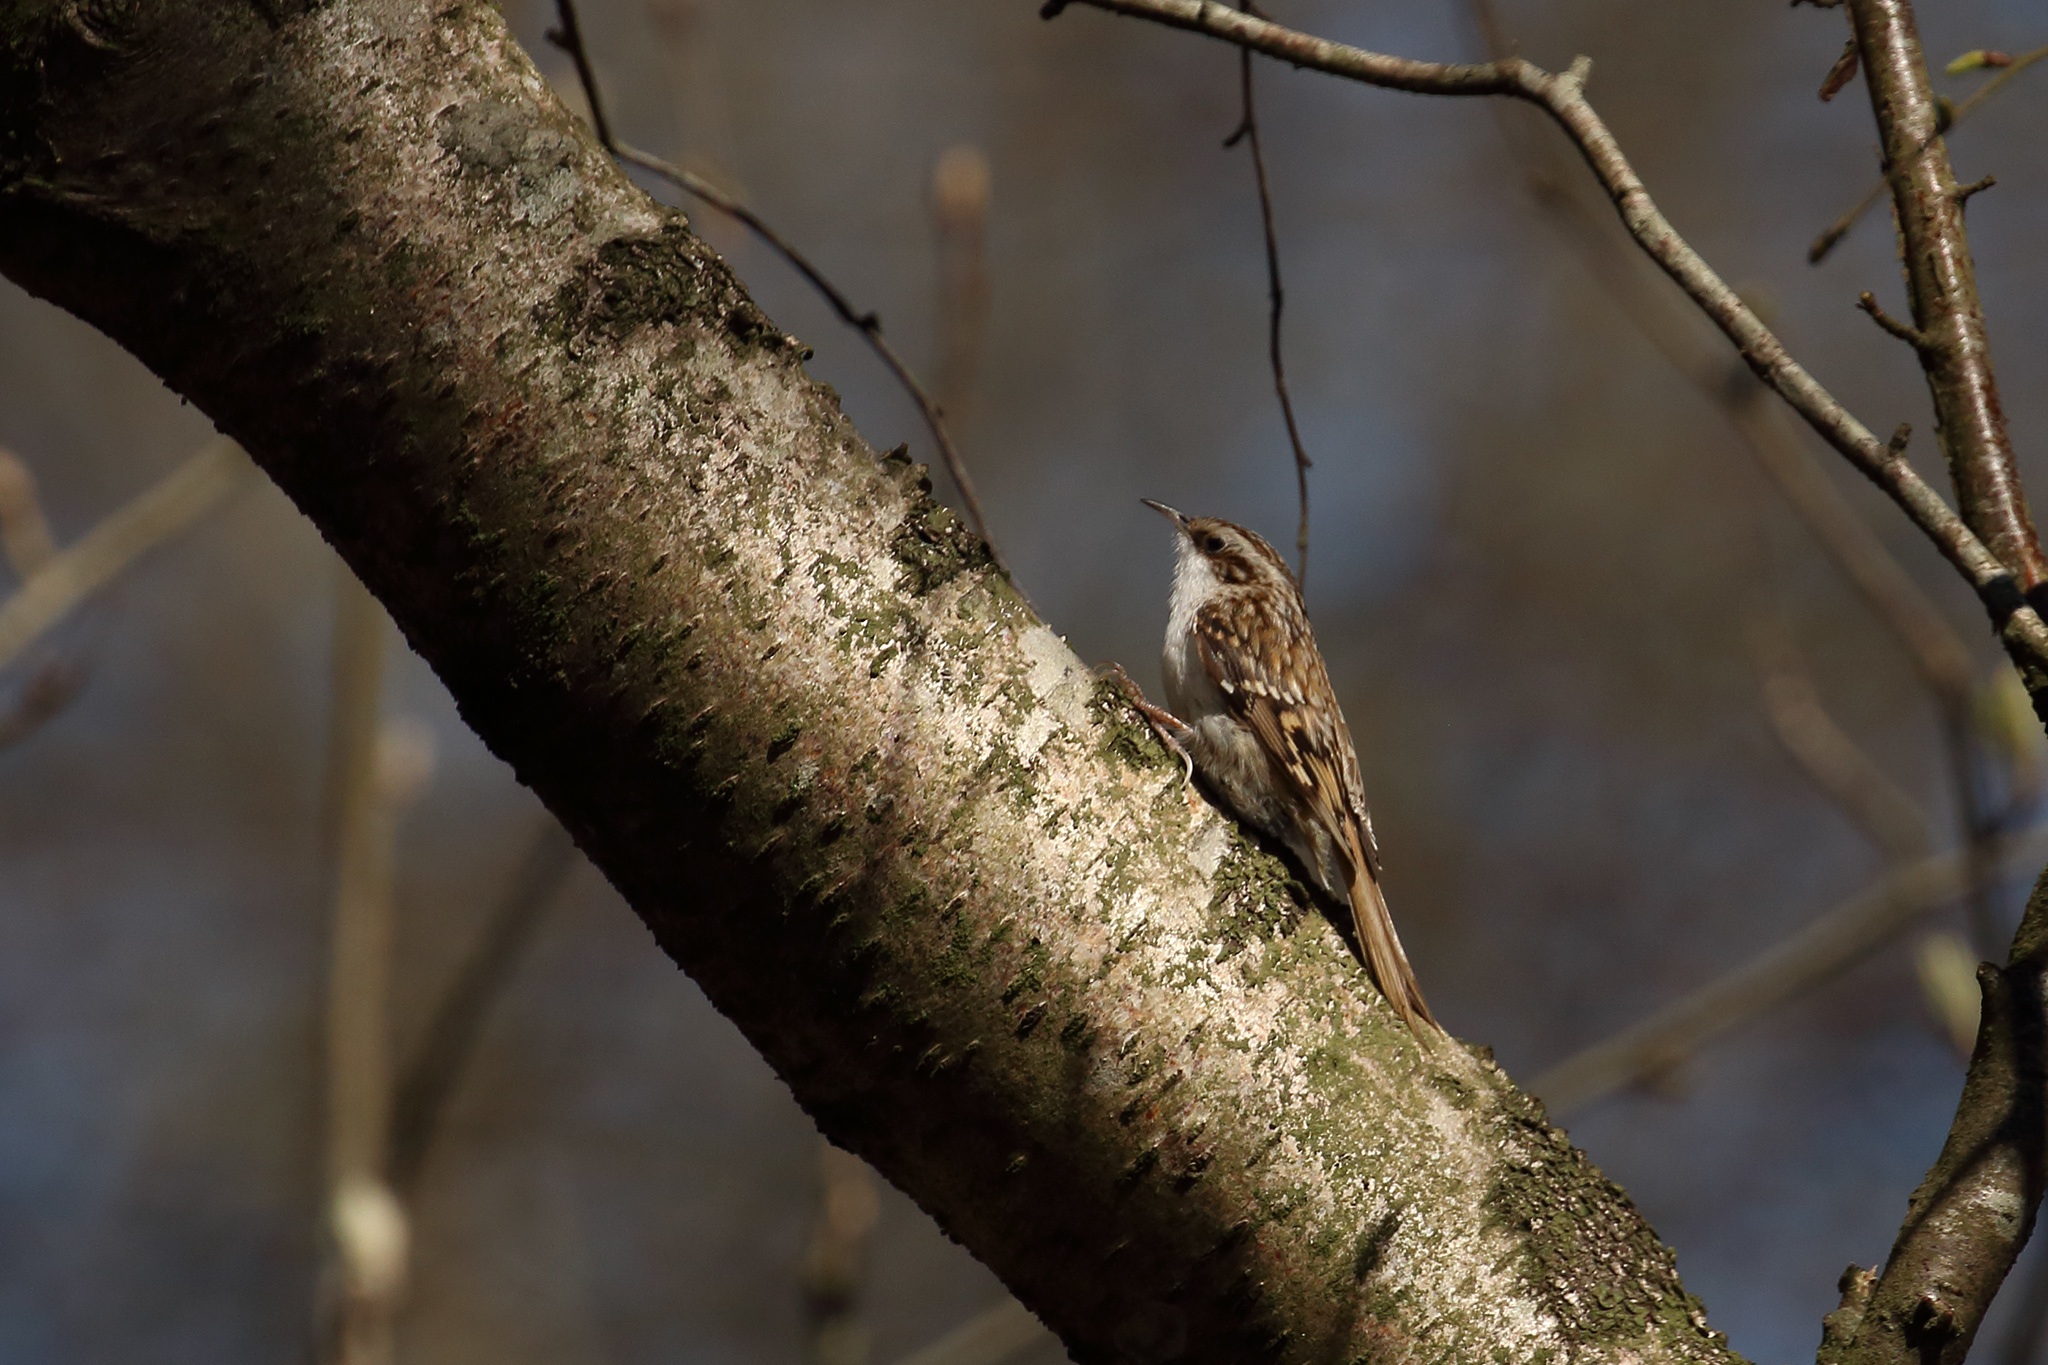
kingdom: Animalia
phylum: Chordata
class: Aves
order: Passeriformes
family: Certhiidae
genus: Certhia
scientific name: Certhia familiaris
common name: Eurasian treecreeper
